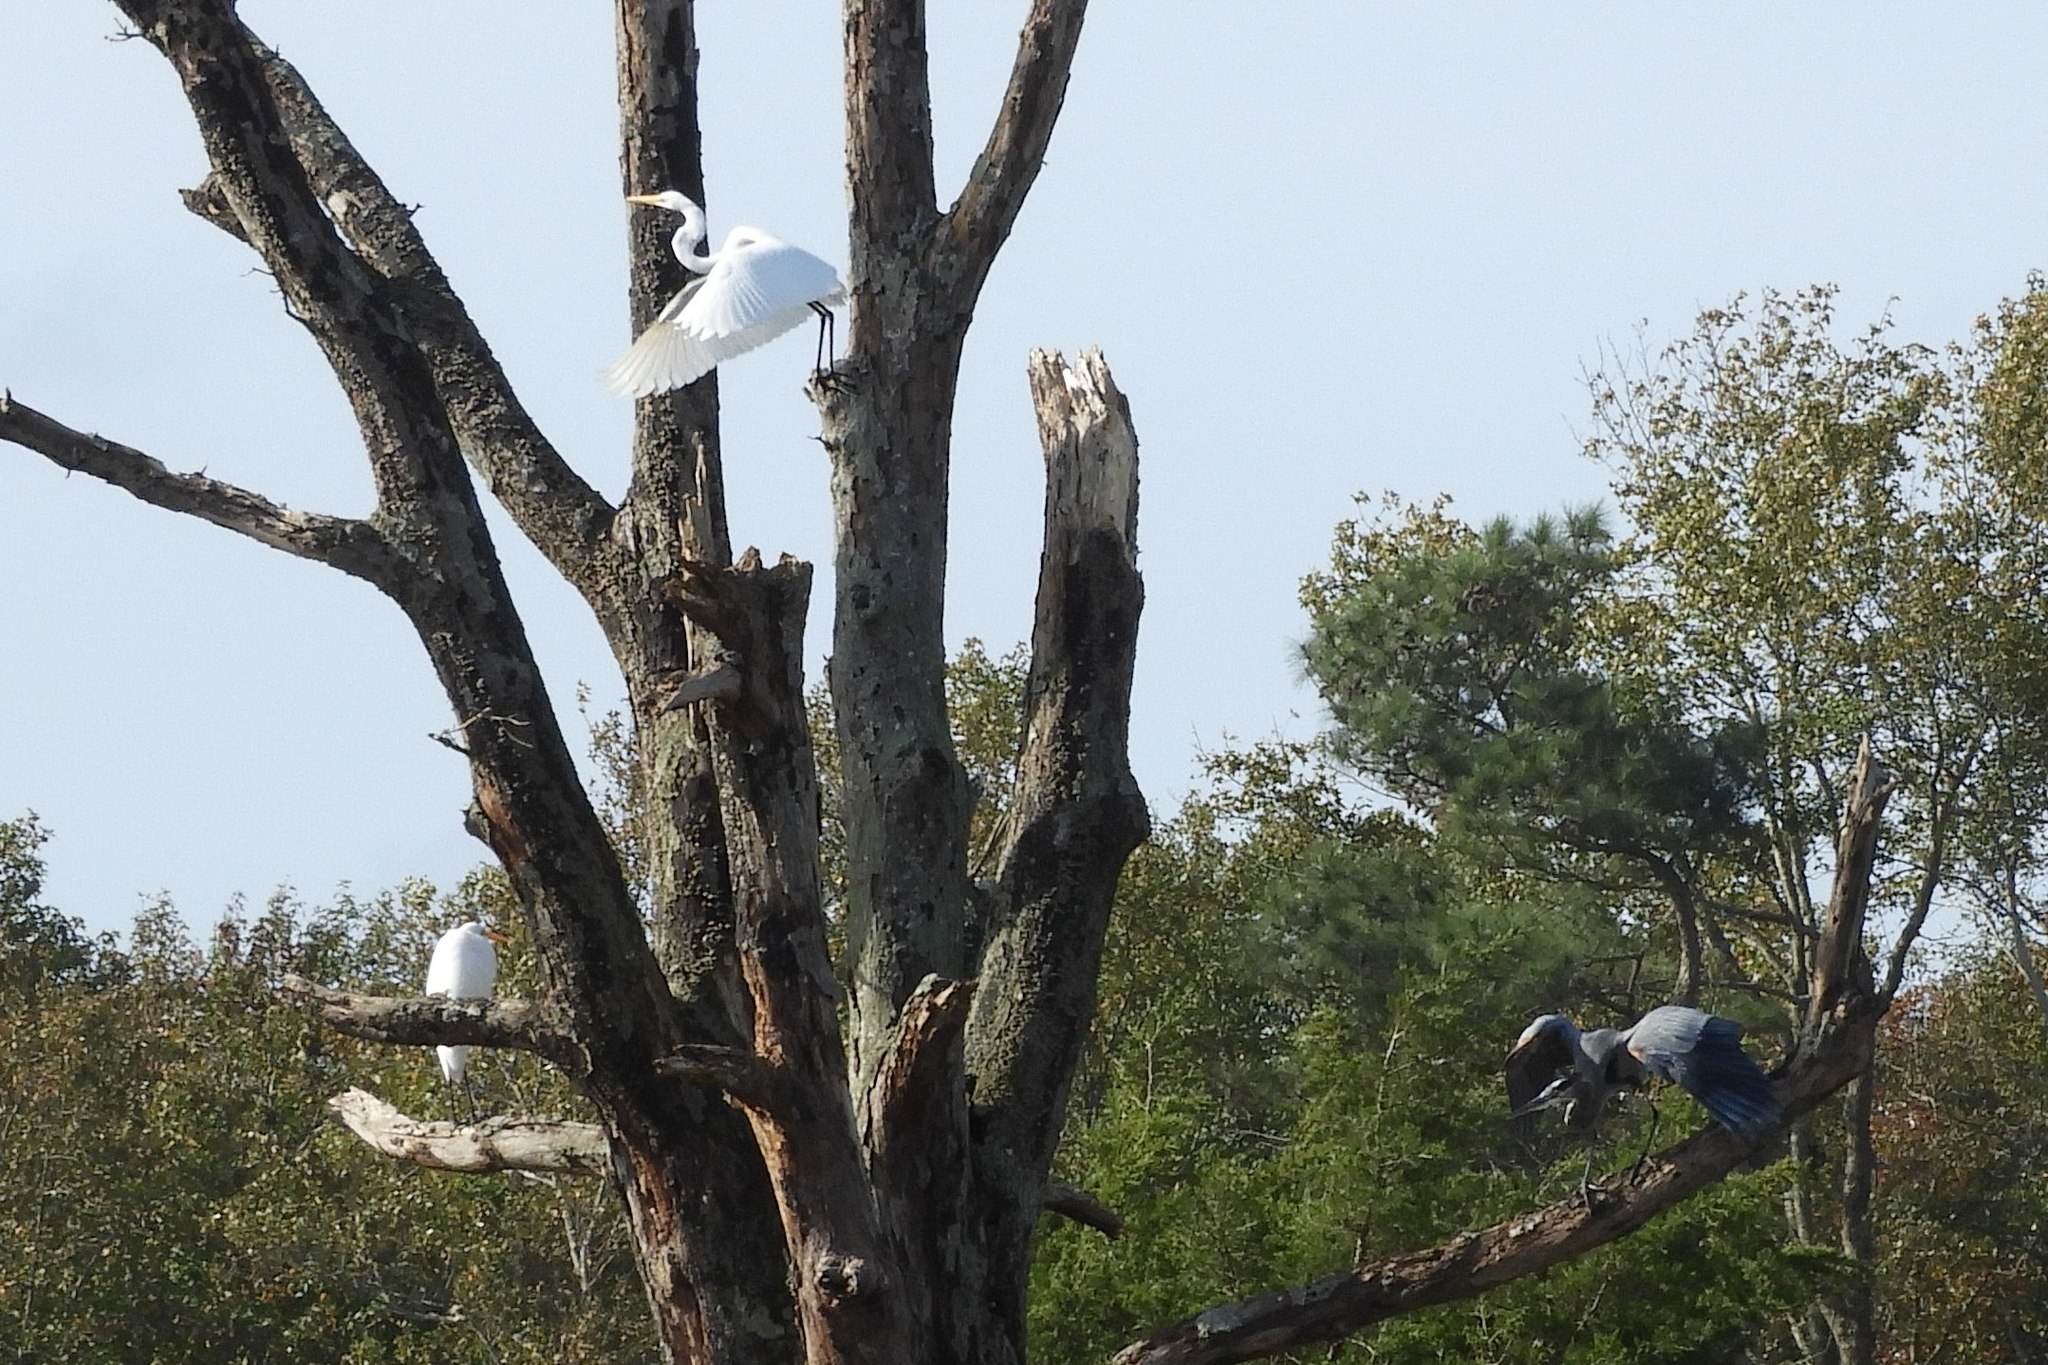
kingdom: Animalia
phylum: Chordata
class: Aves
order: Pelecaniformes
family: Ardeidae
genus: Ardea
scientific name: Ardea herodias
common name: Great blue heron
